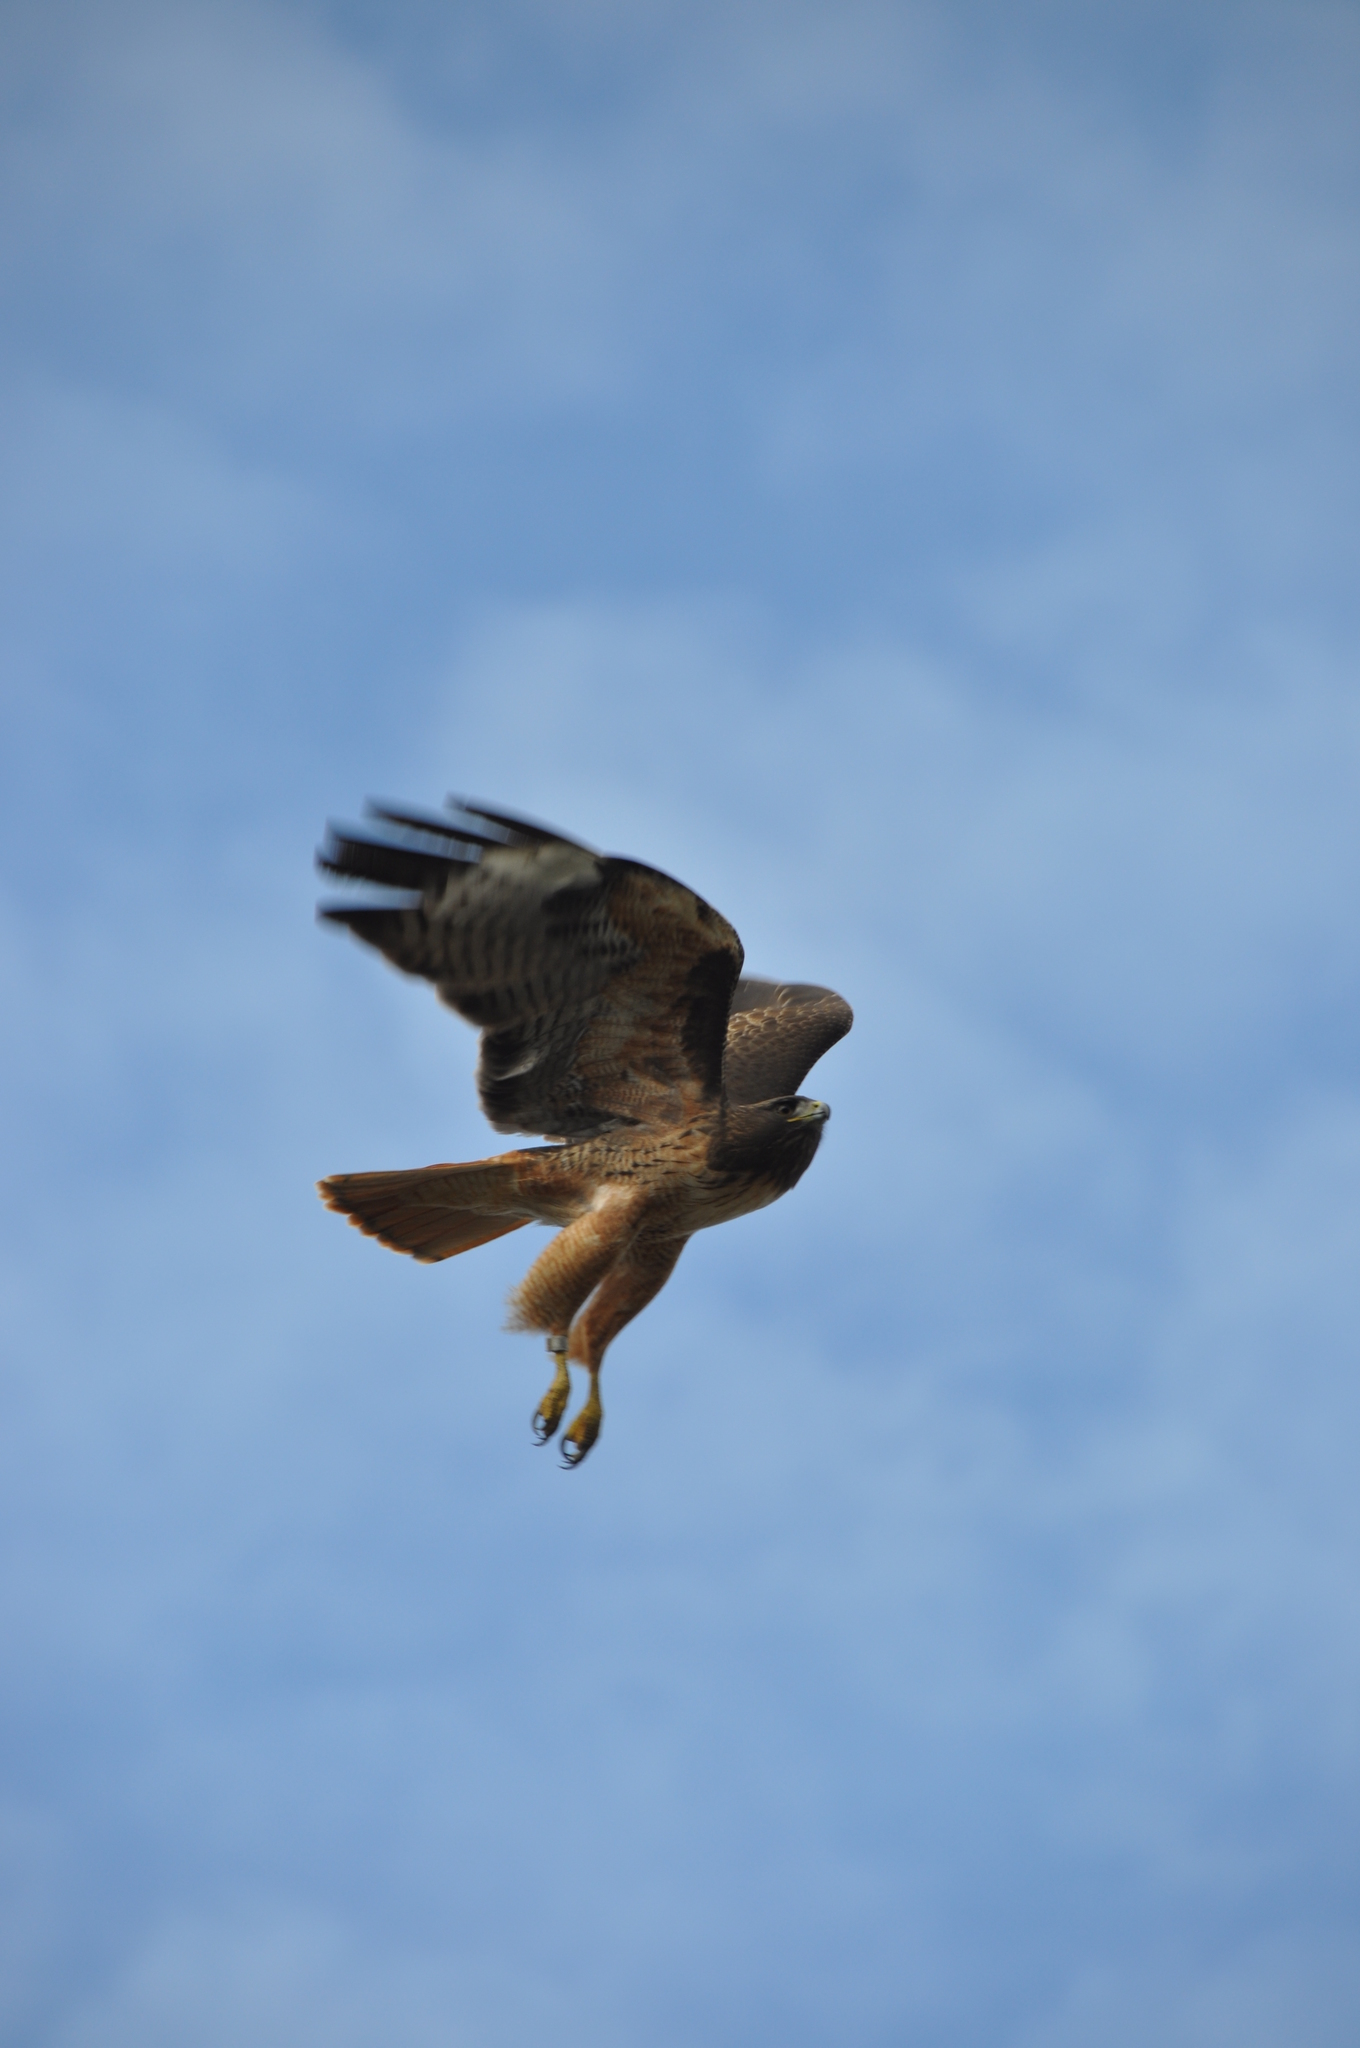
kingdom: Animalia
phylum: Chordata
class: Aves
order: Accipitriformes
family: Accipitridae
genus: Buteo
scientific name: Buteo jamaicensis
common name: Red-tailed hawk
